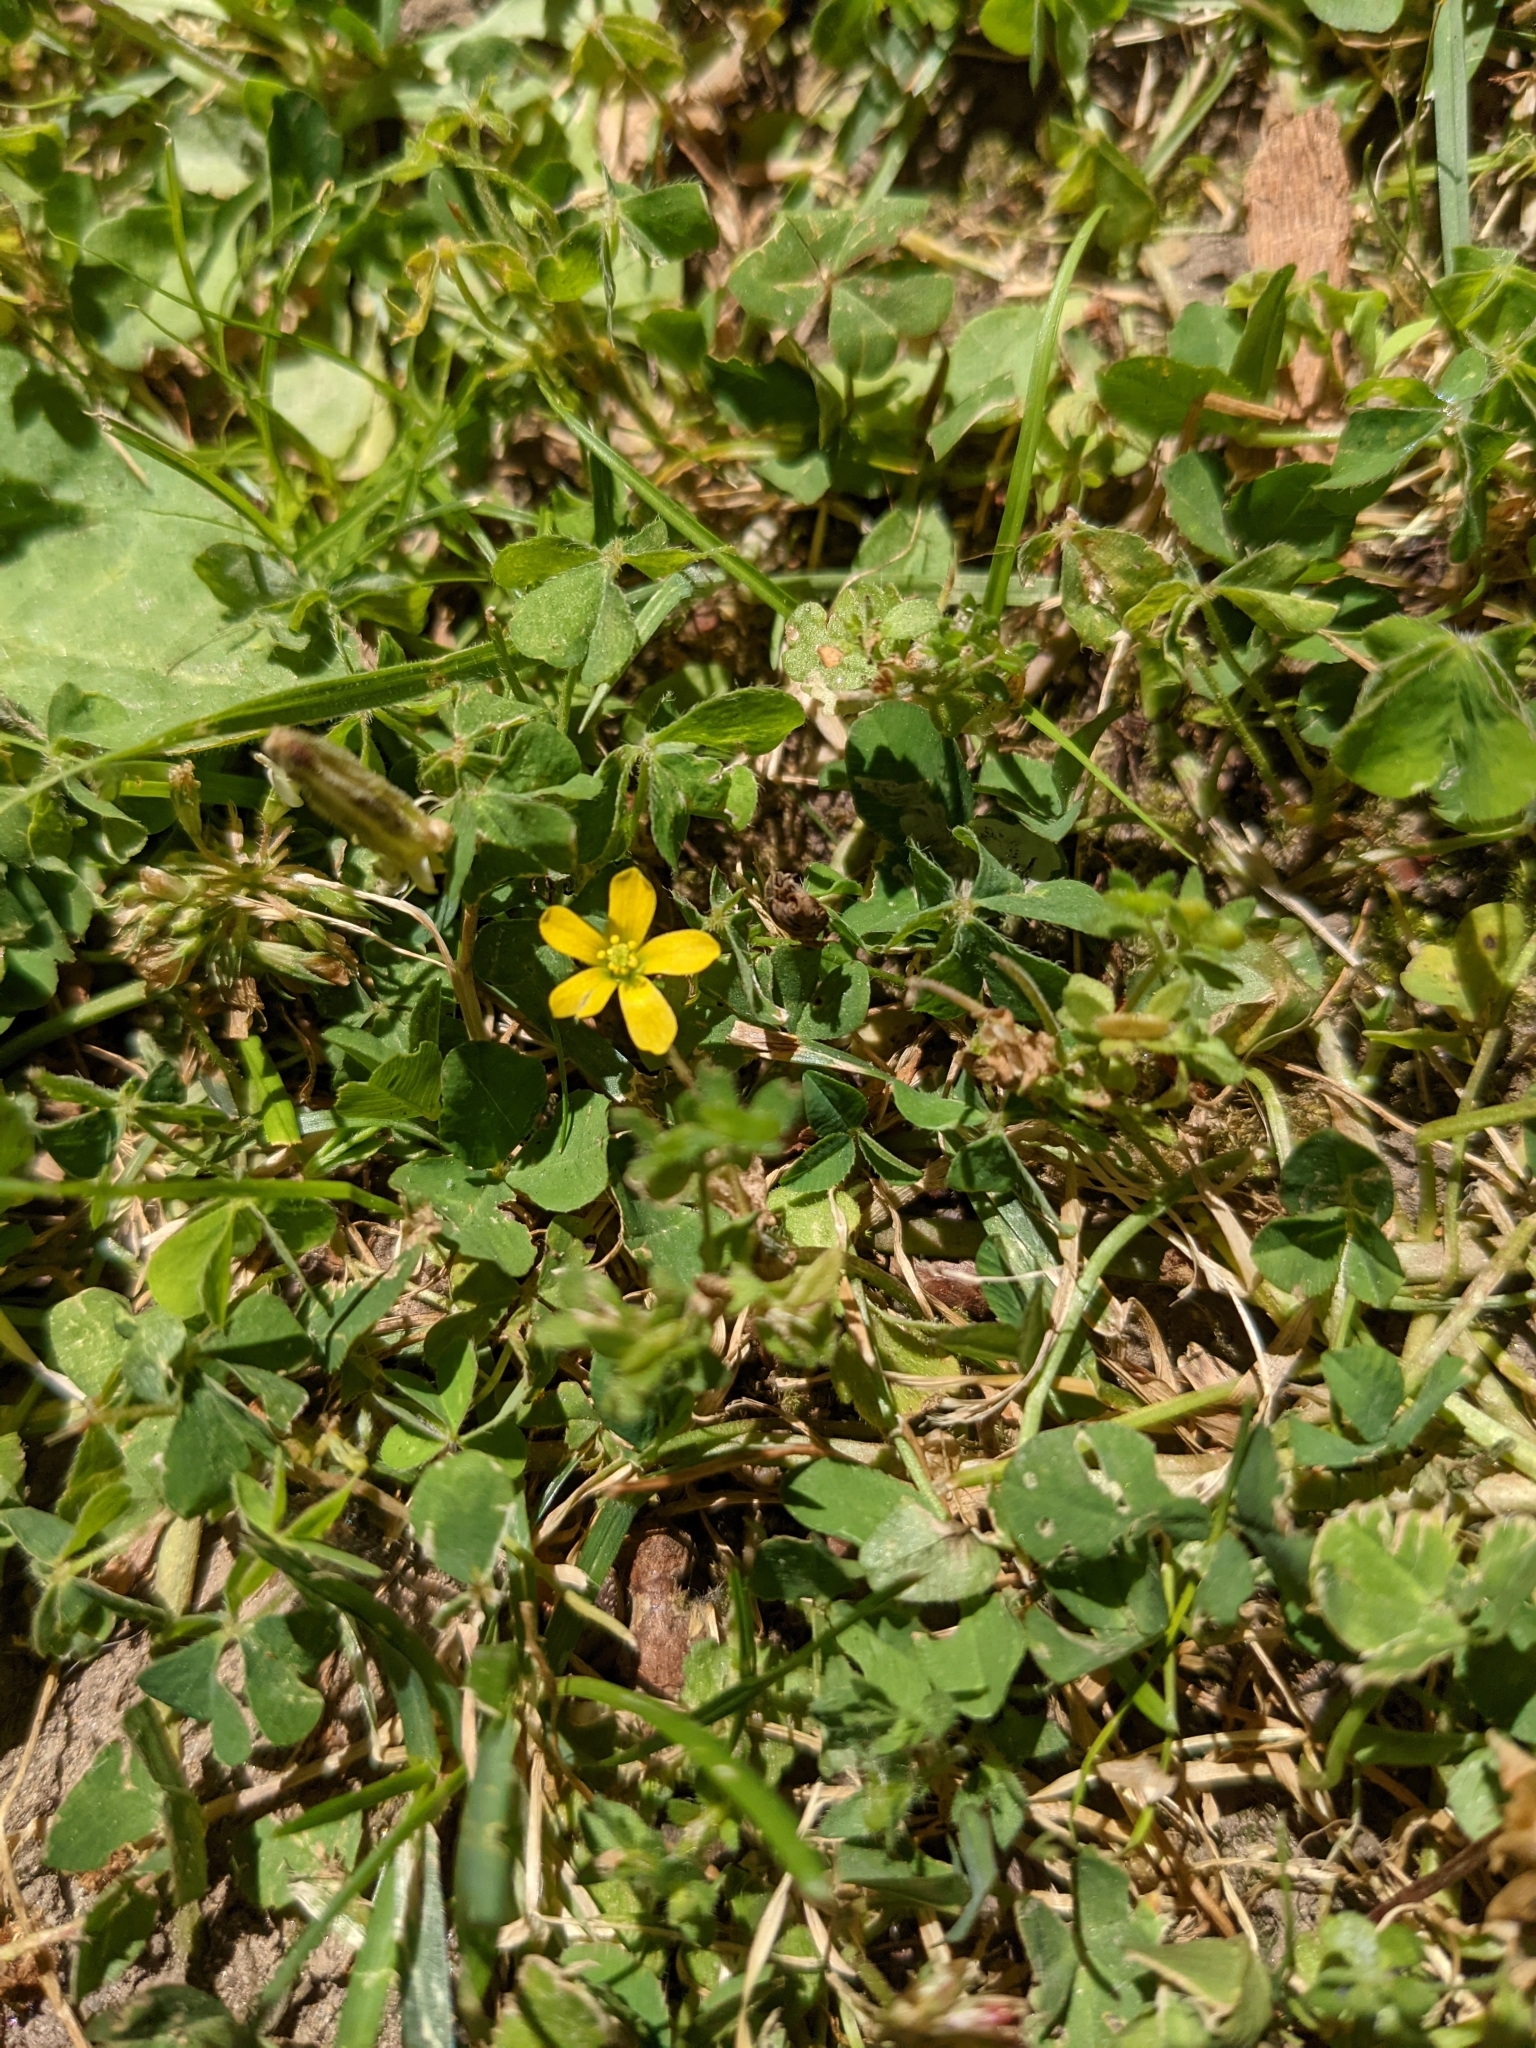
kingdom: Plantae
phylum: Tracheophyta
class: Magnoliopsida
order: Oxalidales
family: Oxalidaceae
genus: Oxalis
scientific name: Oxalis corniculata
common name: Procumbent yellow-sorrel
